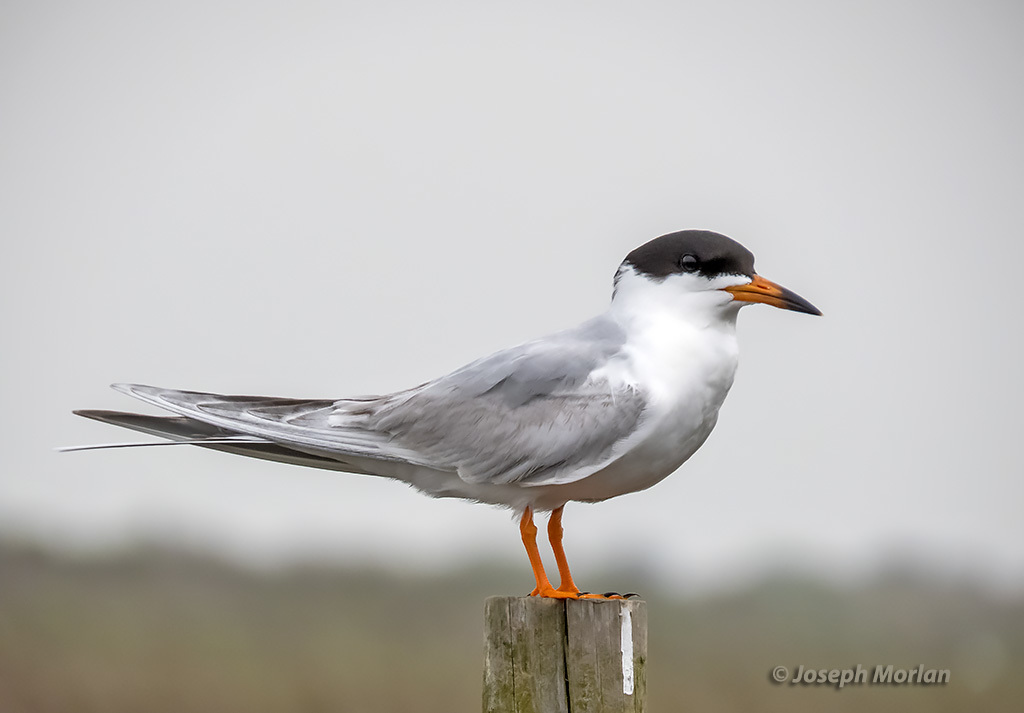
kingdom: Animalia
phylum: Chordata
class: Aves
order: Charadriiformes
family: Laridae
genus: Sterna
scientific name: Sterna forsteri
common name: Forster's tern
